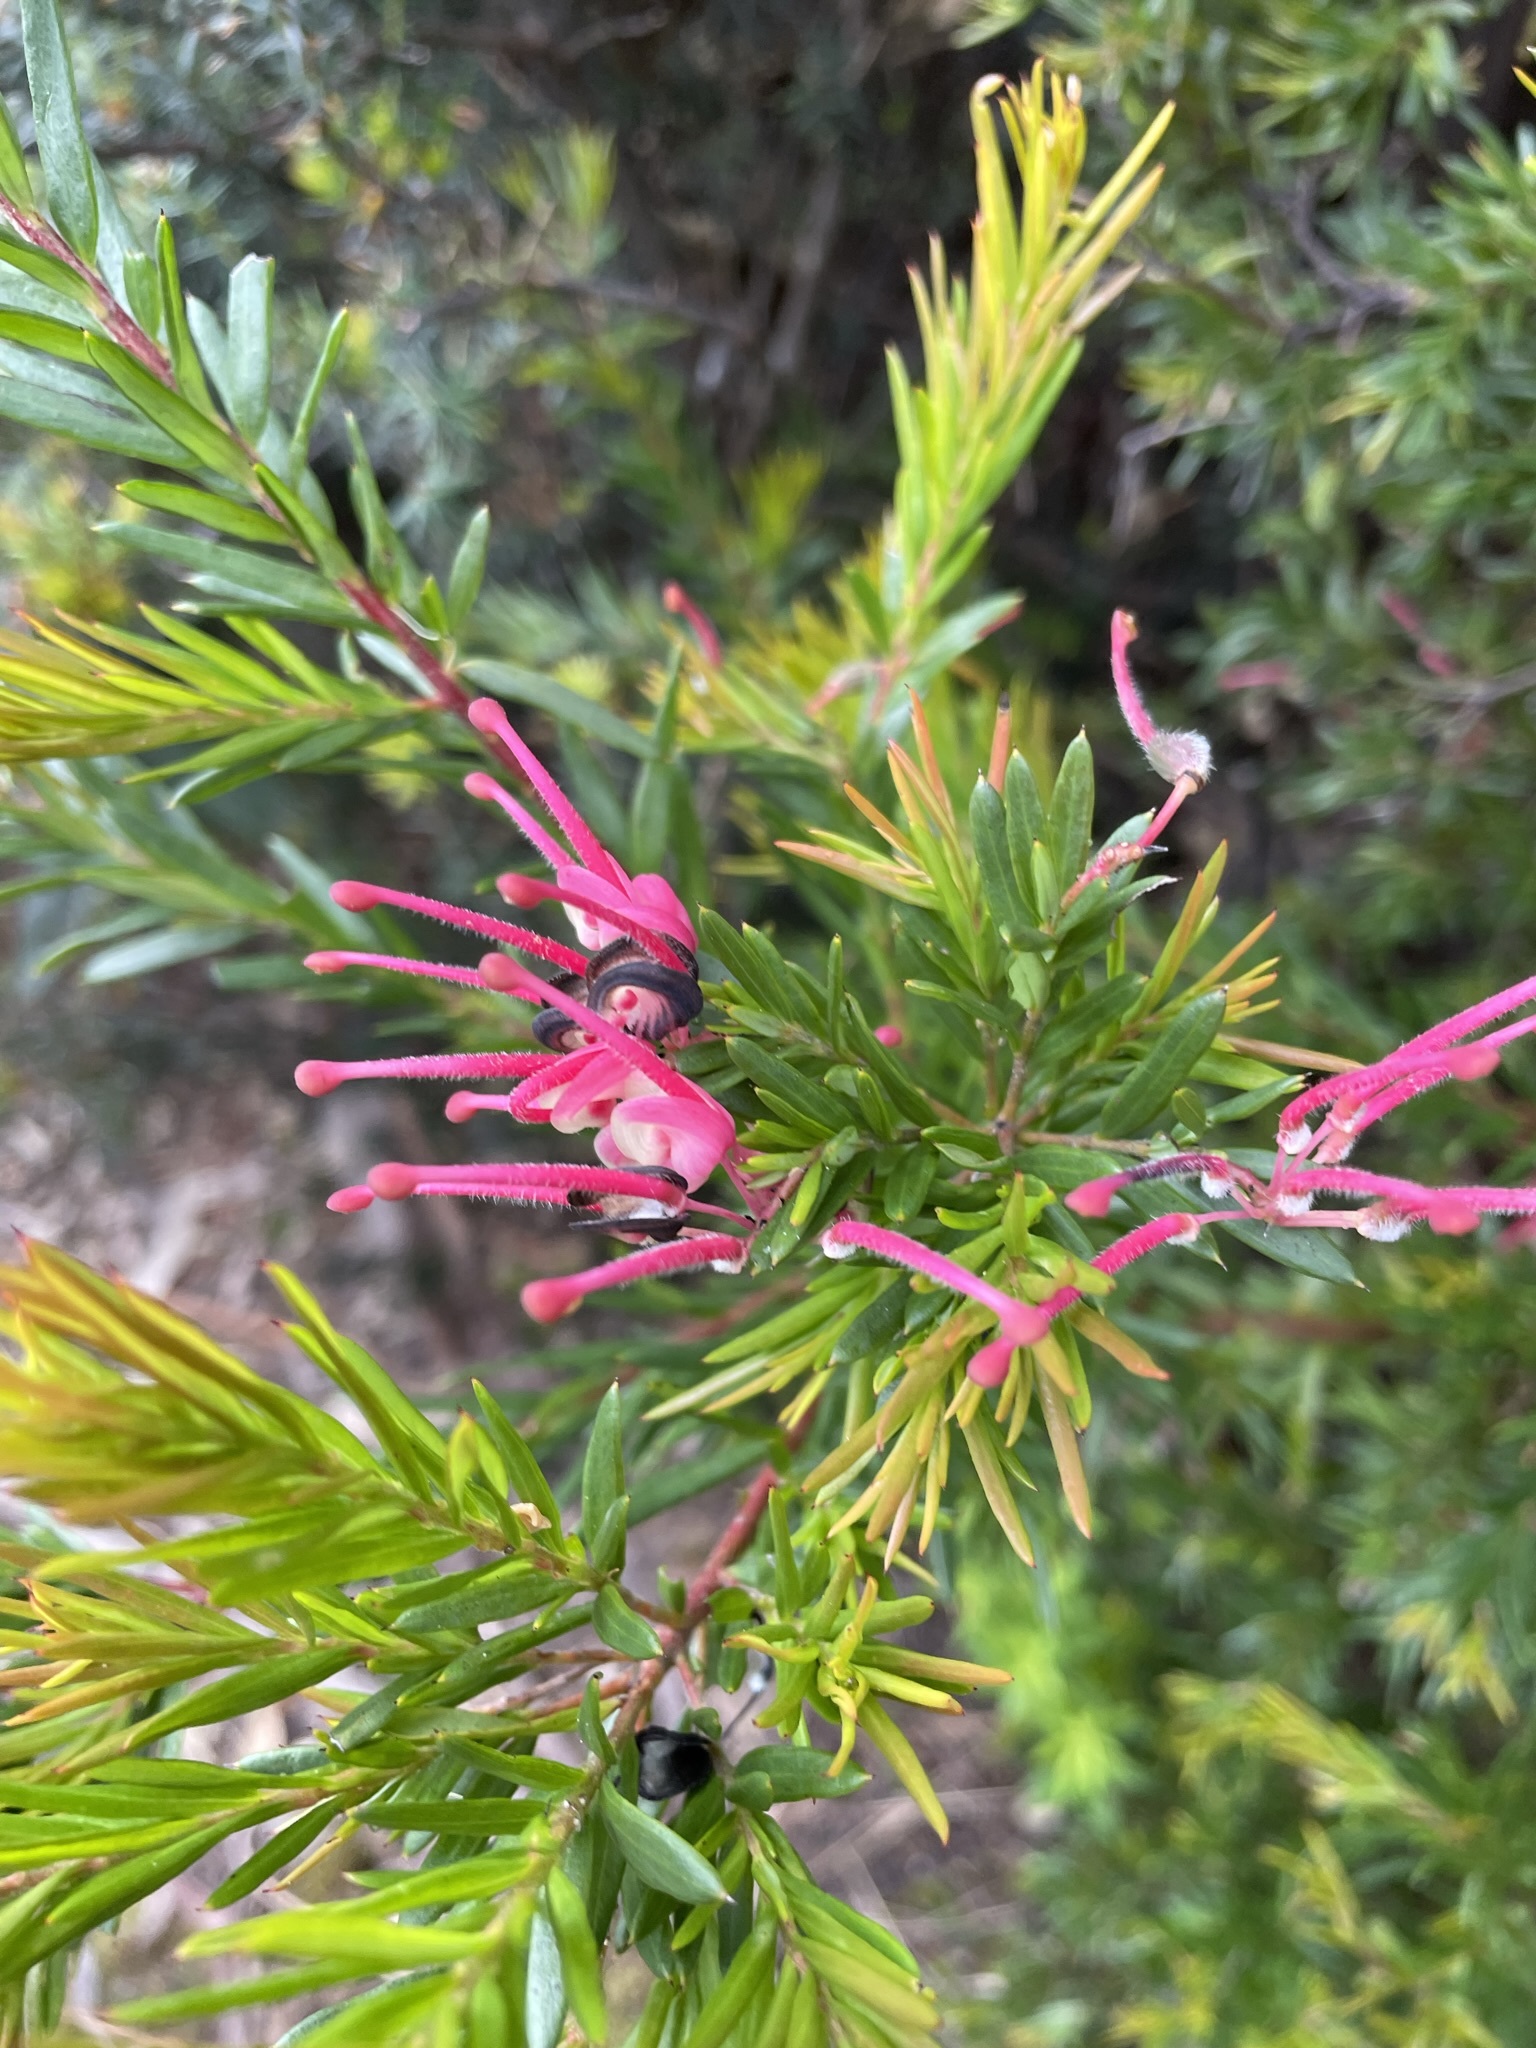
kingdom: Plantae
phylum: Tracheophyta
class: Magnoliopsida
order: Proteales
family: Proteaceae
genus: Grevillea
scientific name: Grevillea rosmarinifolia
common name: Rosemary grevillea
